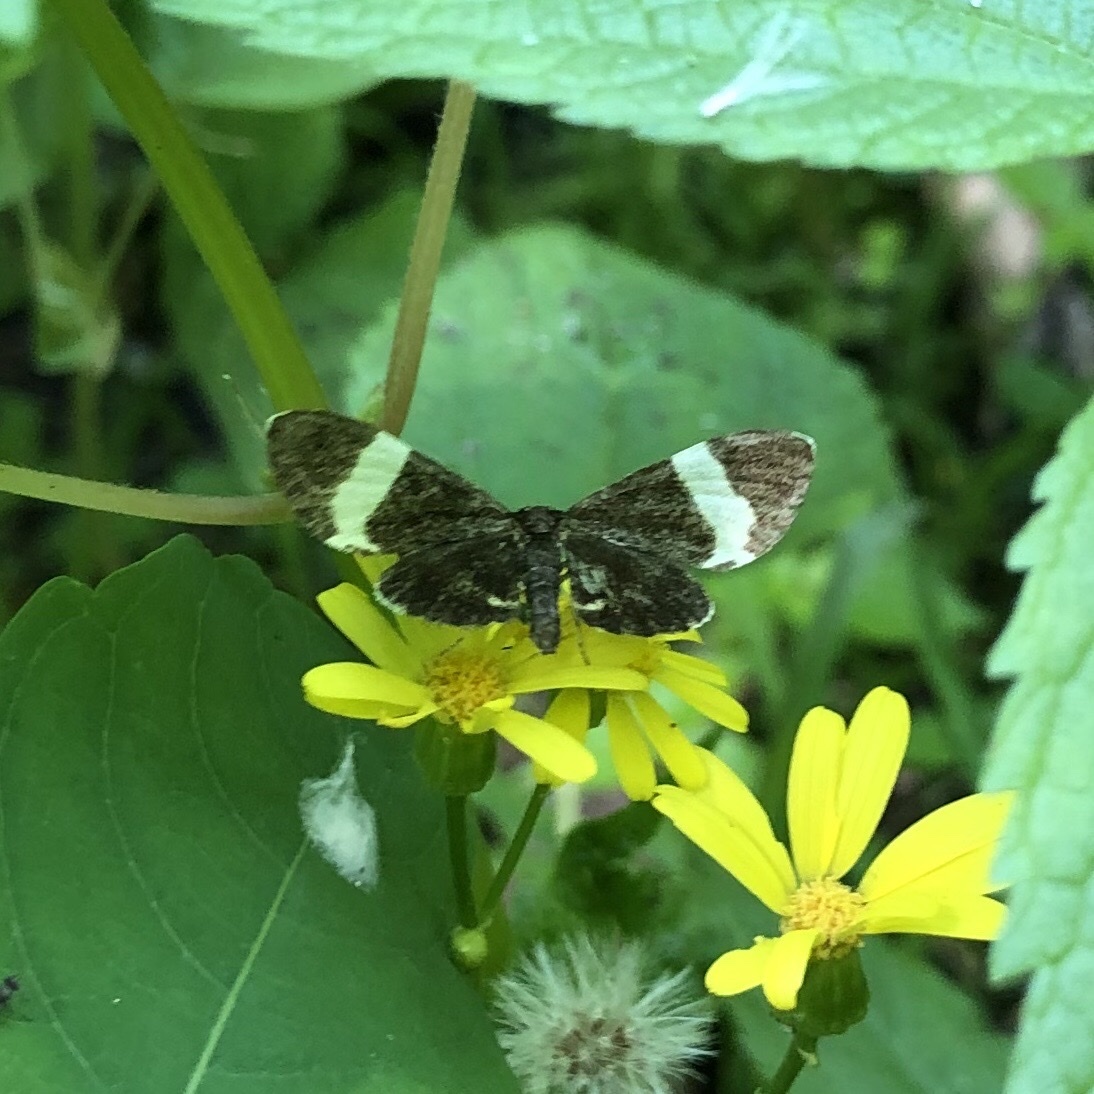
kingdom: Animalia
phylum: Arthropoda
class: Insecta
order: Lepidoptera
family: Geometridae
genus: Trichodezia
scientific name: Trichodezia albovittata
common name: White striped black
